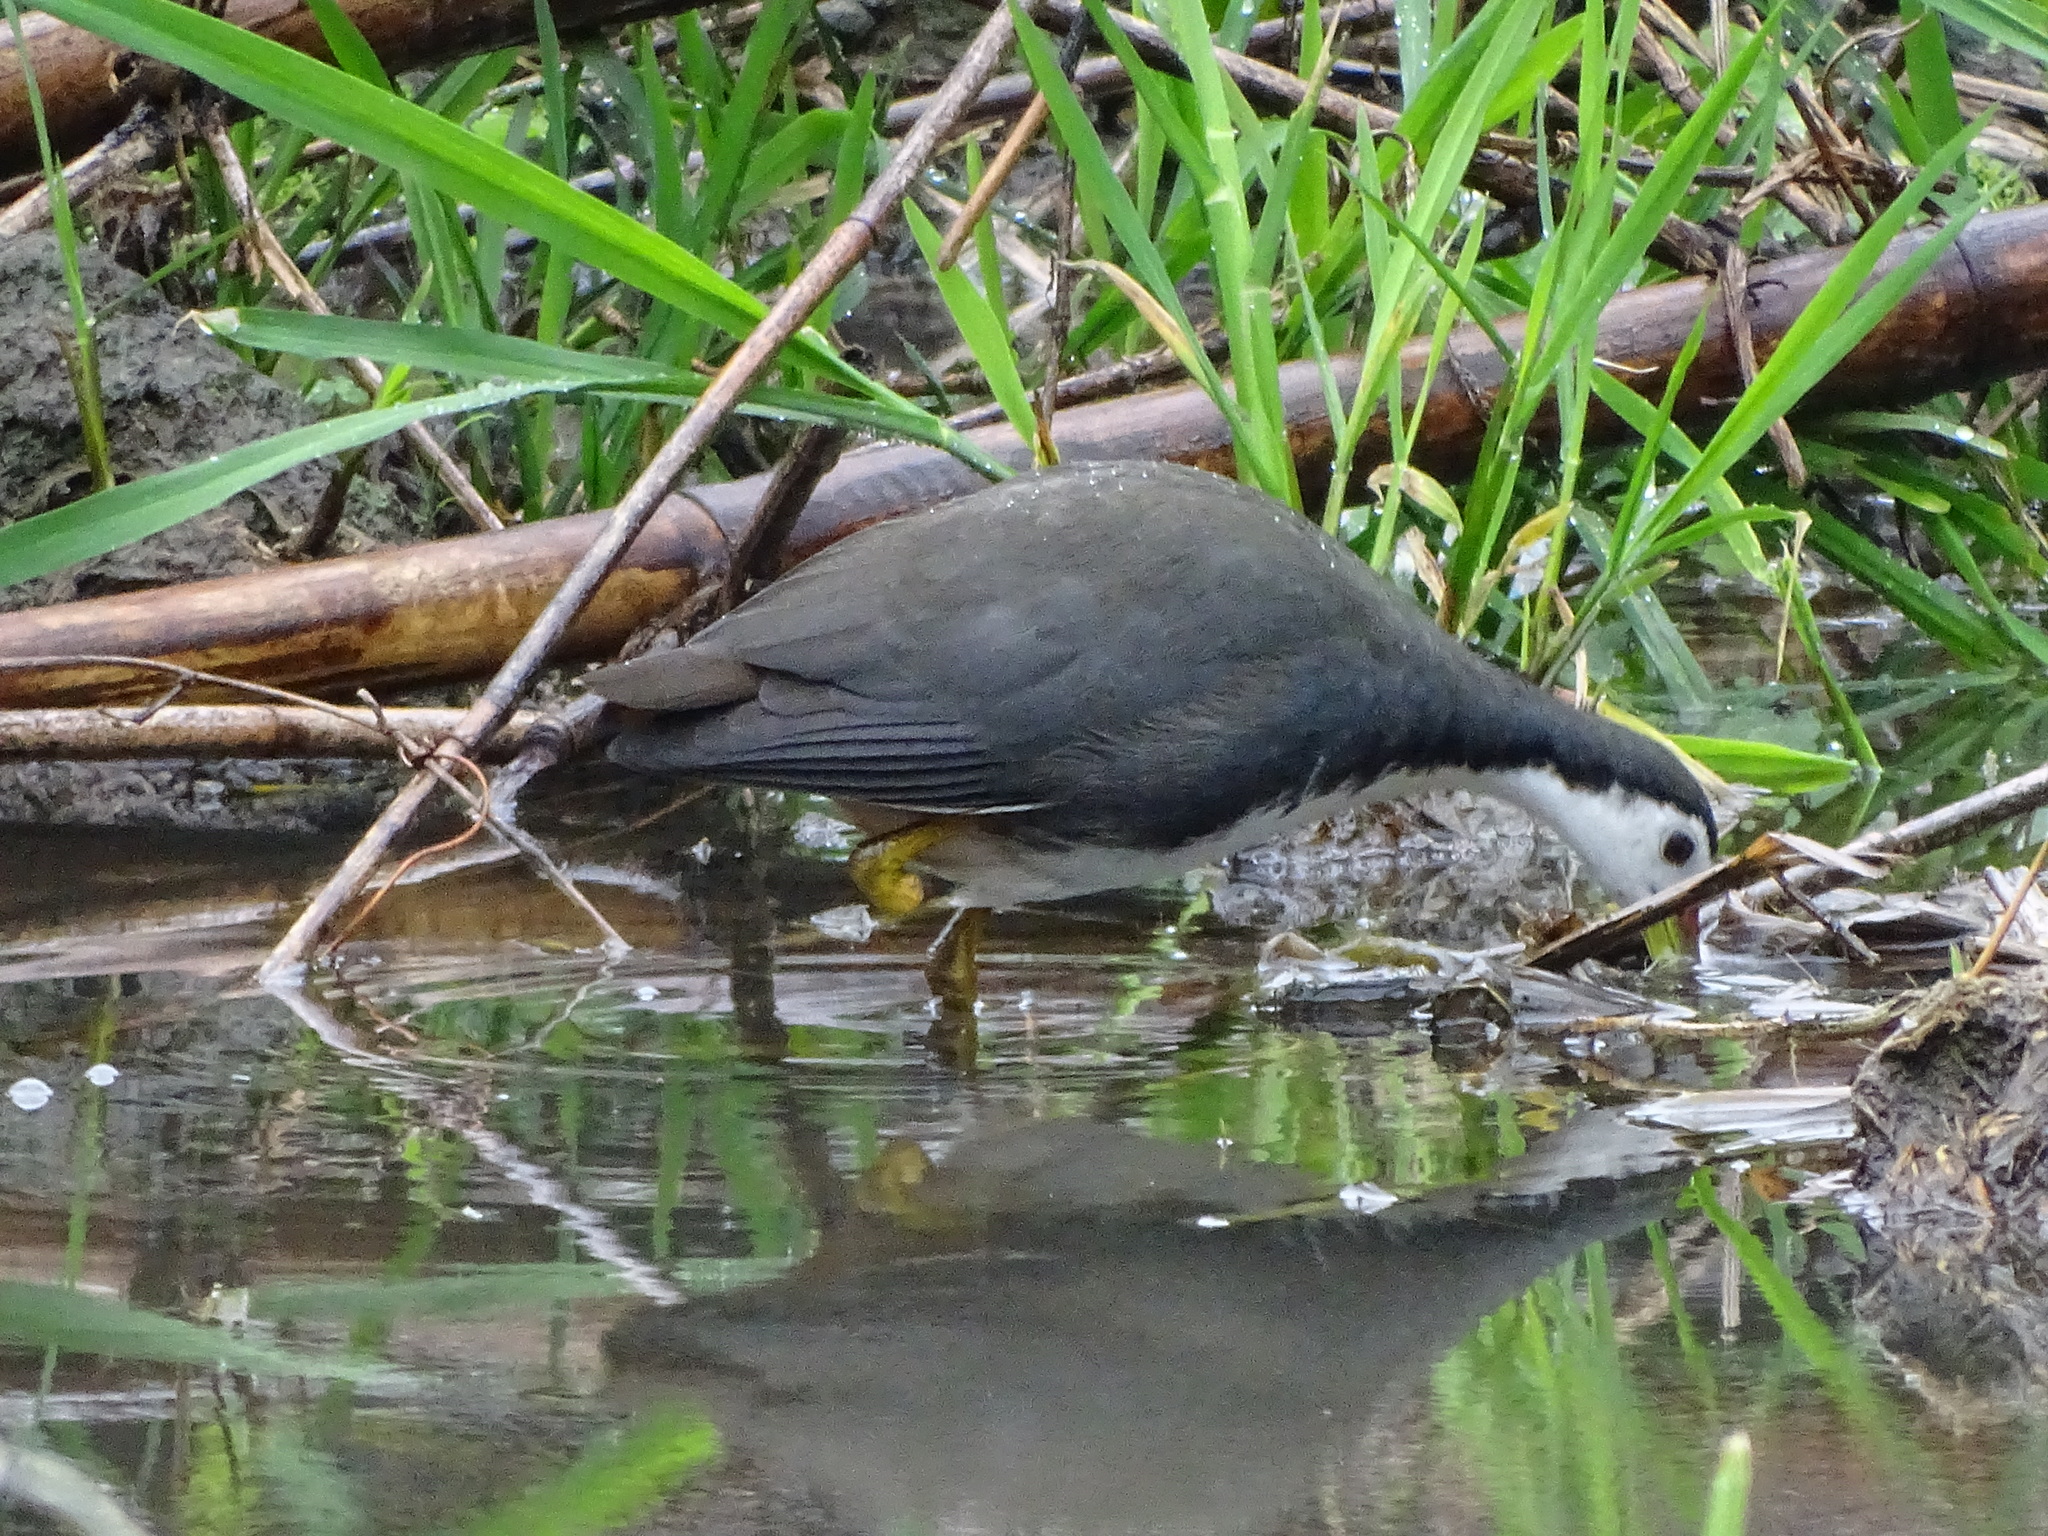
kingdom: Animalia
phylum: Chordata
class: Aves
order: Gruiformes
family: Rallidae
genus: Amaurornis
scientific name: Amaurornis phoenicurus
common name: White-breasted waterhen
